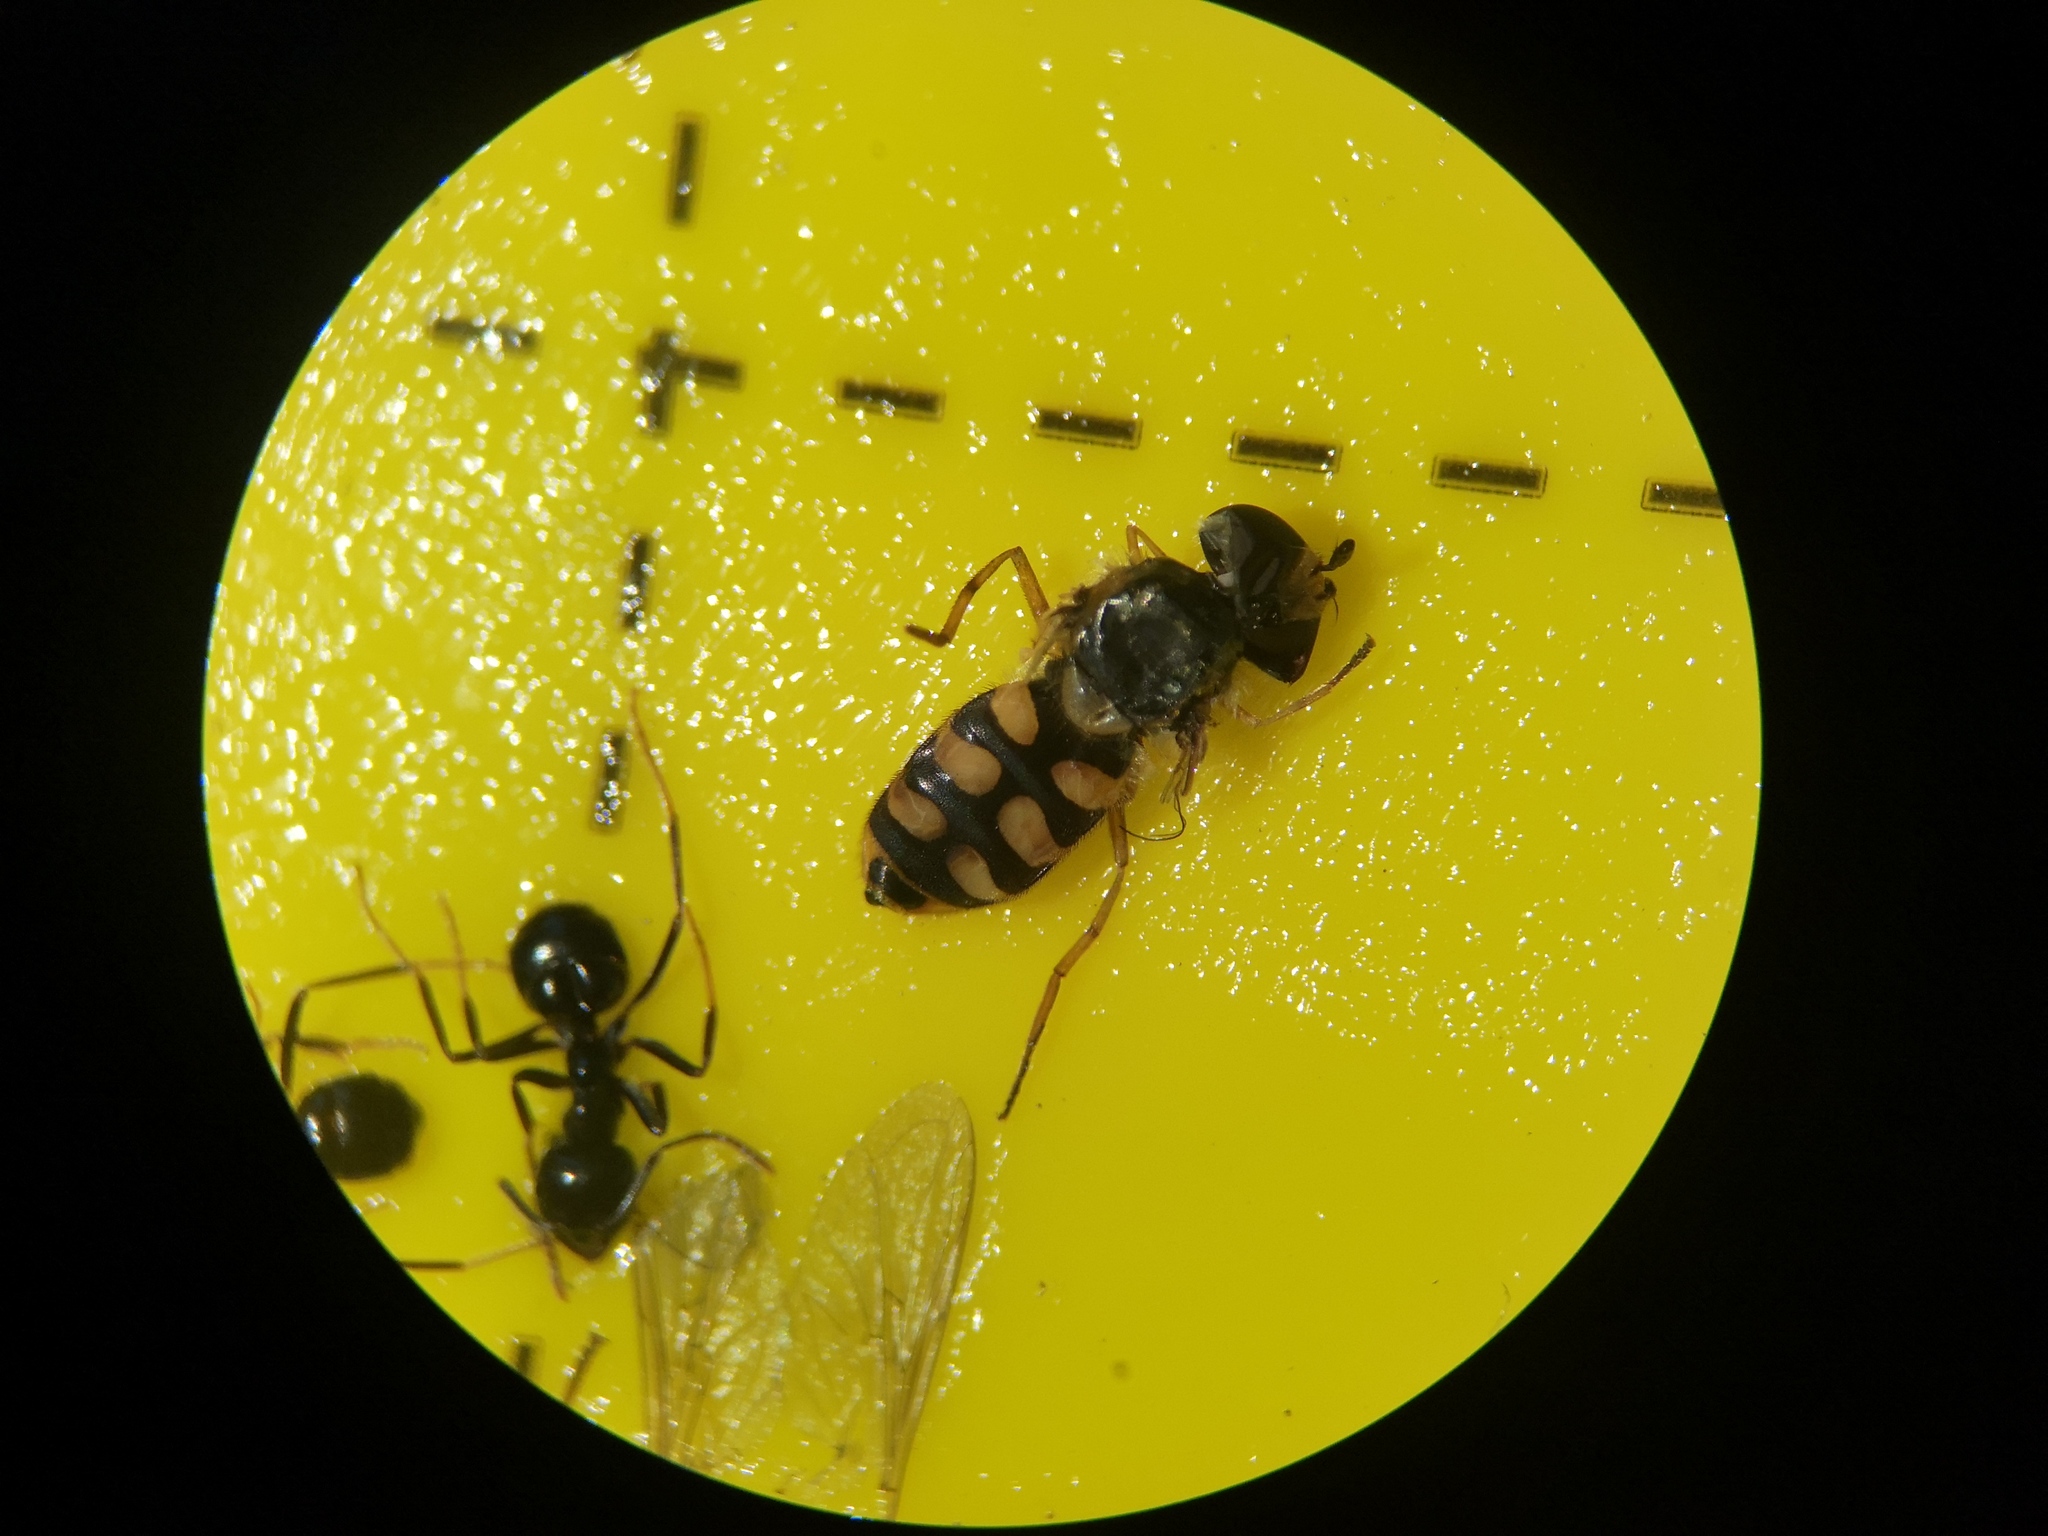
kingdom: Animalia
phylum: Arthropoda
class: Insecta
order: Diptera
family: Syrphidae
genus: Eupeodes
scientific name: Eupeodes corollae
